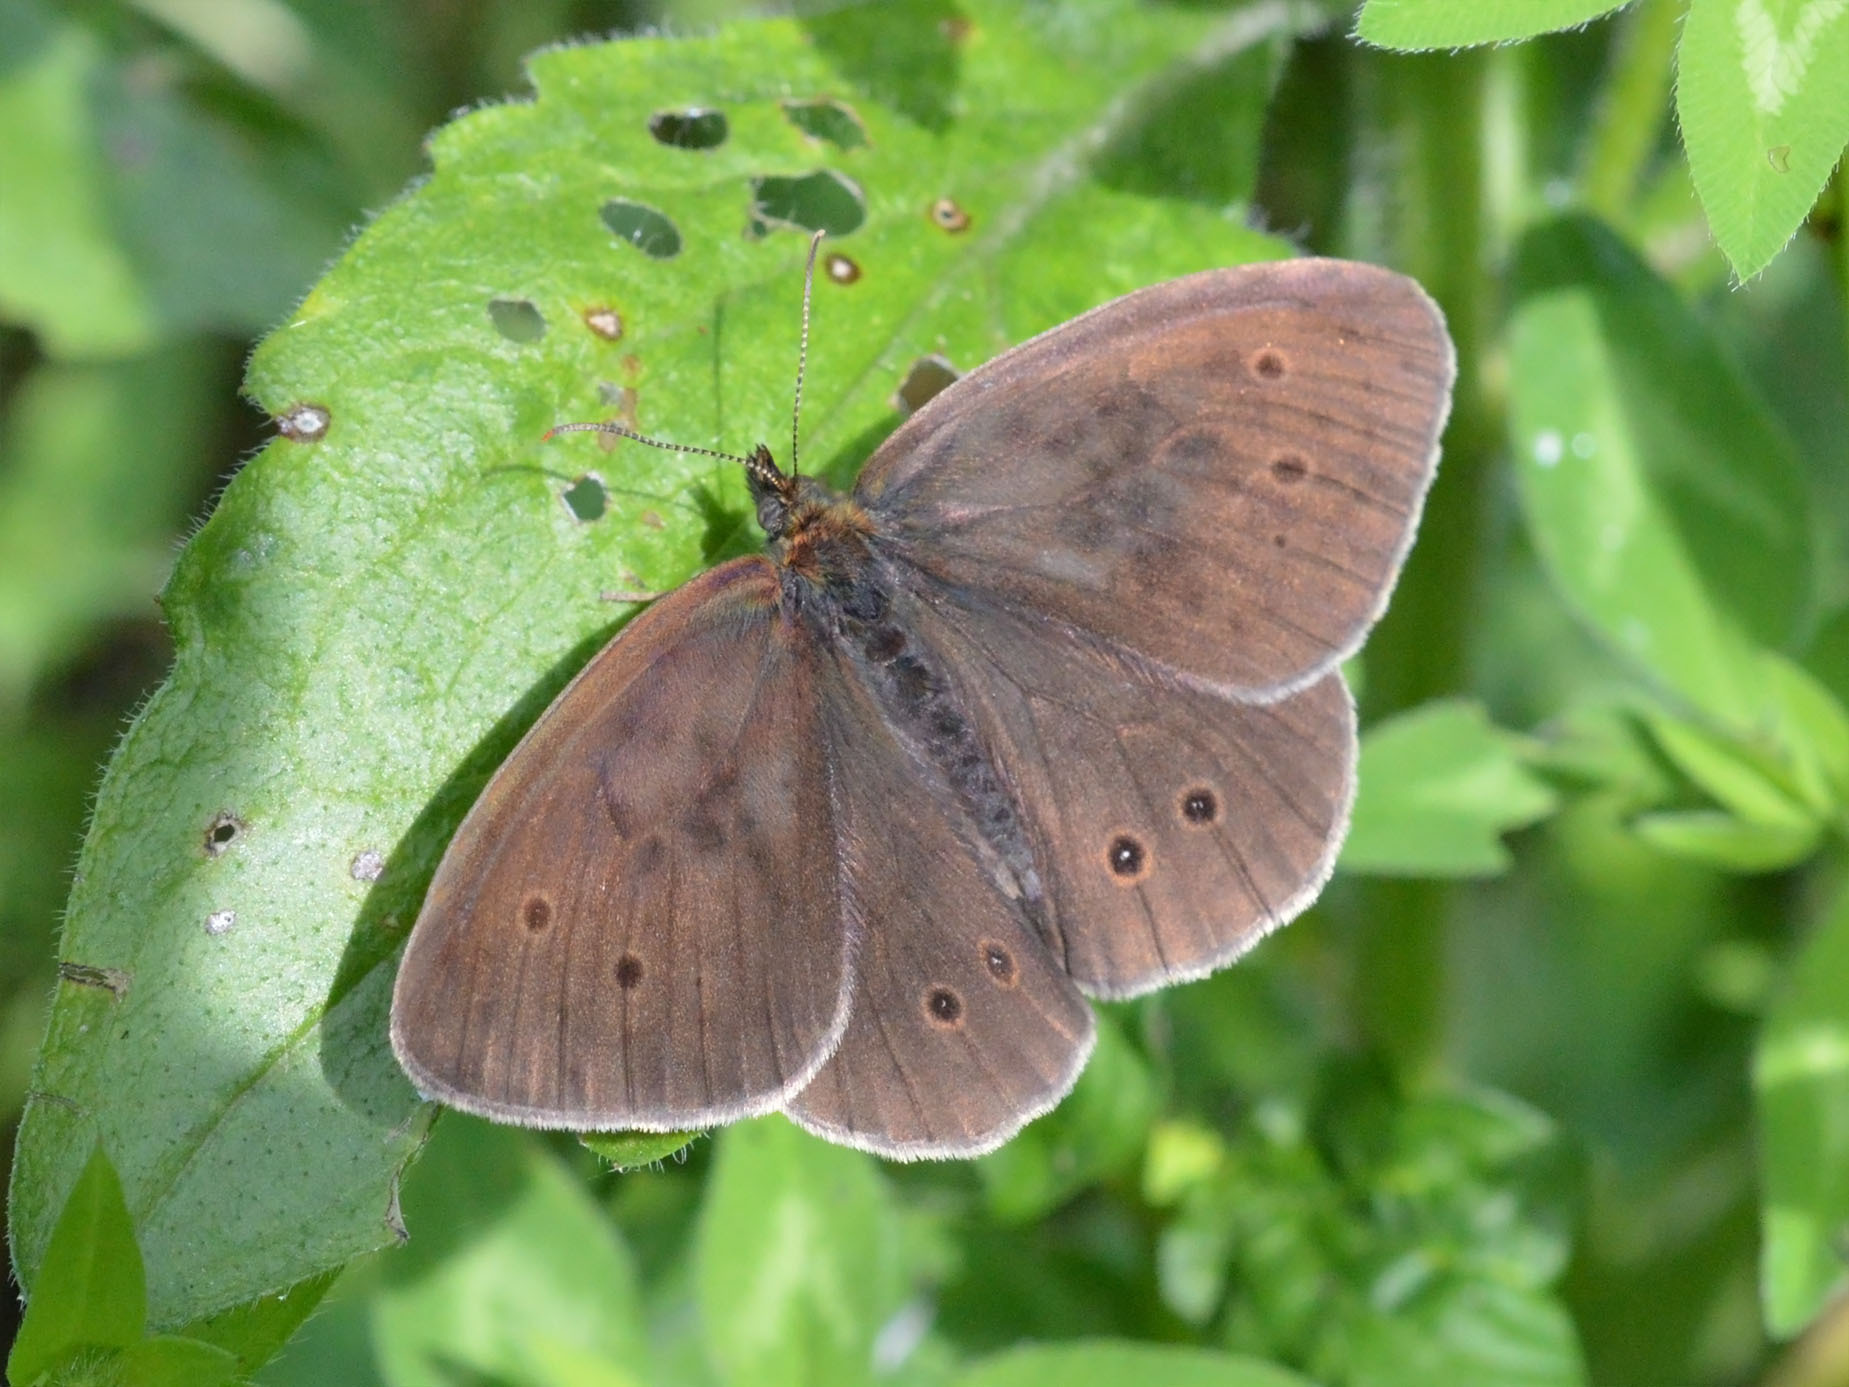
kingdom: Animalia
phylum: Arthropoda
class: Insecta
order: Lepidoptera
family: Nymphalidae
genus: Aphantopus
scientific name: Aphantopus hyperantus
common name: Ringlet
